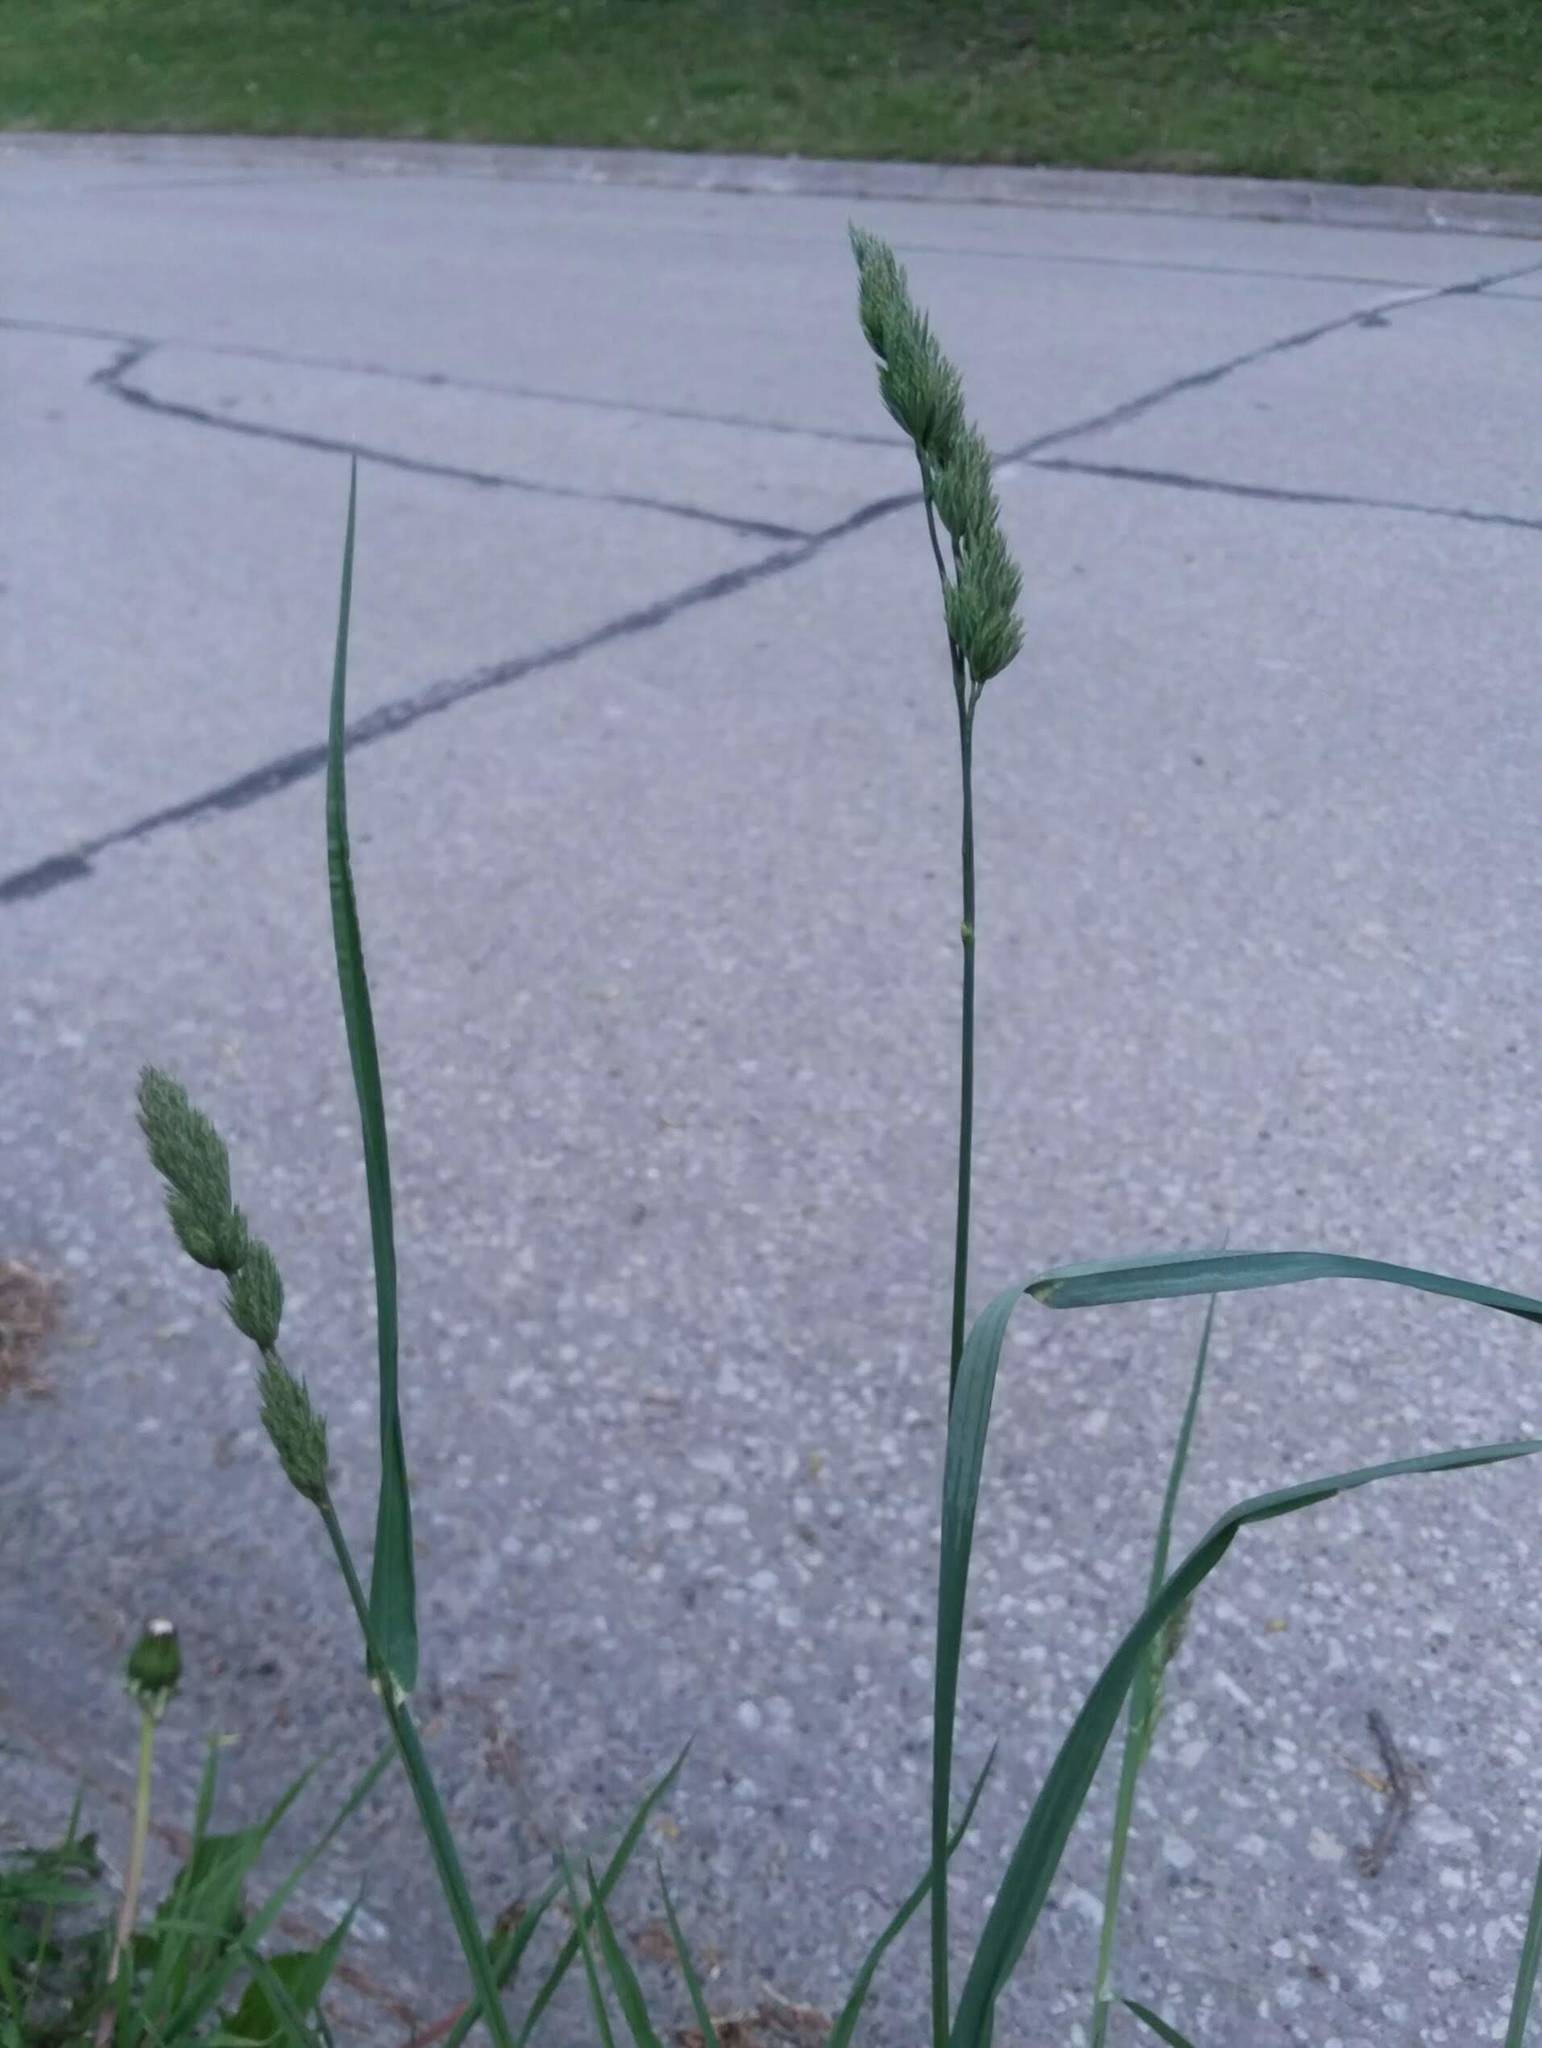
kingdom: Plantae
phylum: Tracheophyta
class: Liliopsida
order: Poales
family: Poaceae
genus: Dactylis
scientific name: Dactylis glomerata
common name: Orchardgrass
